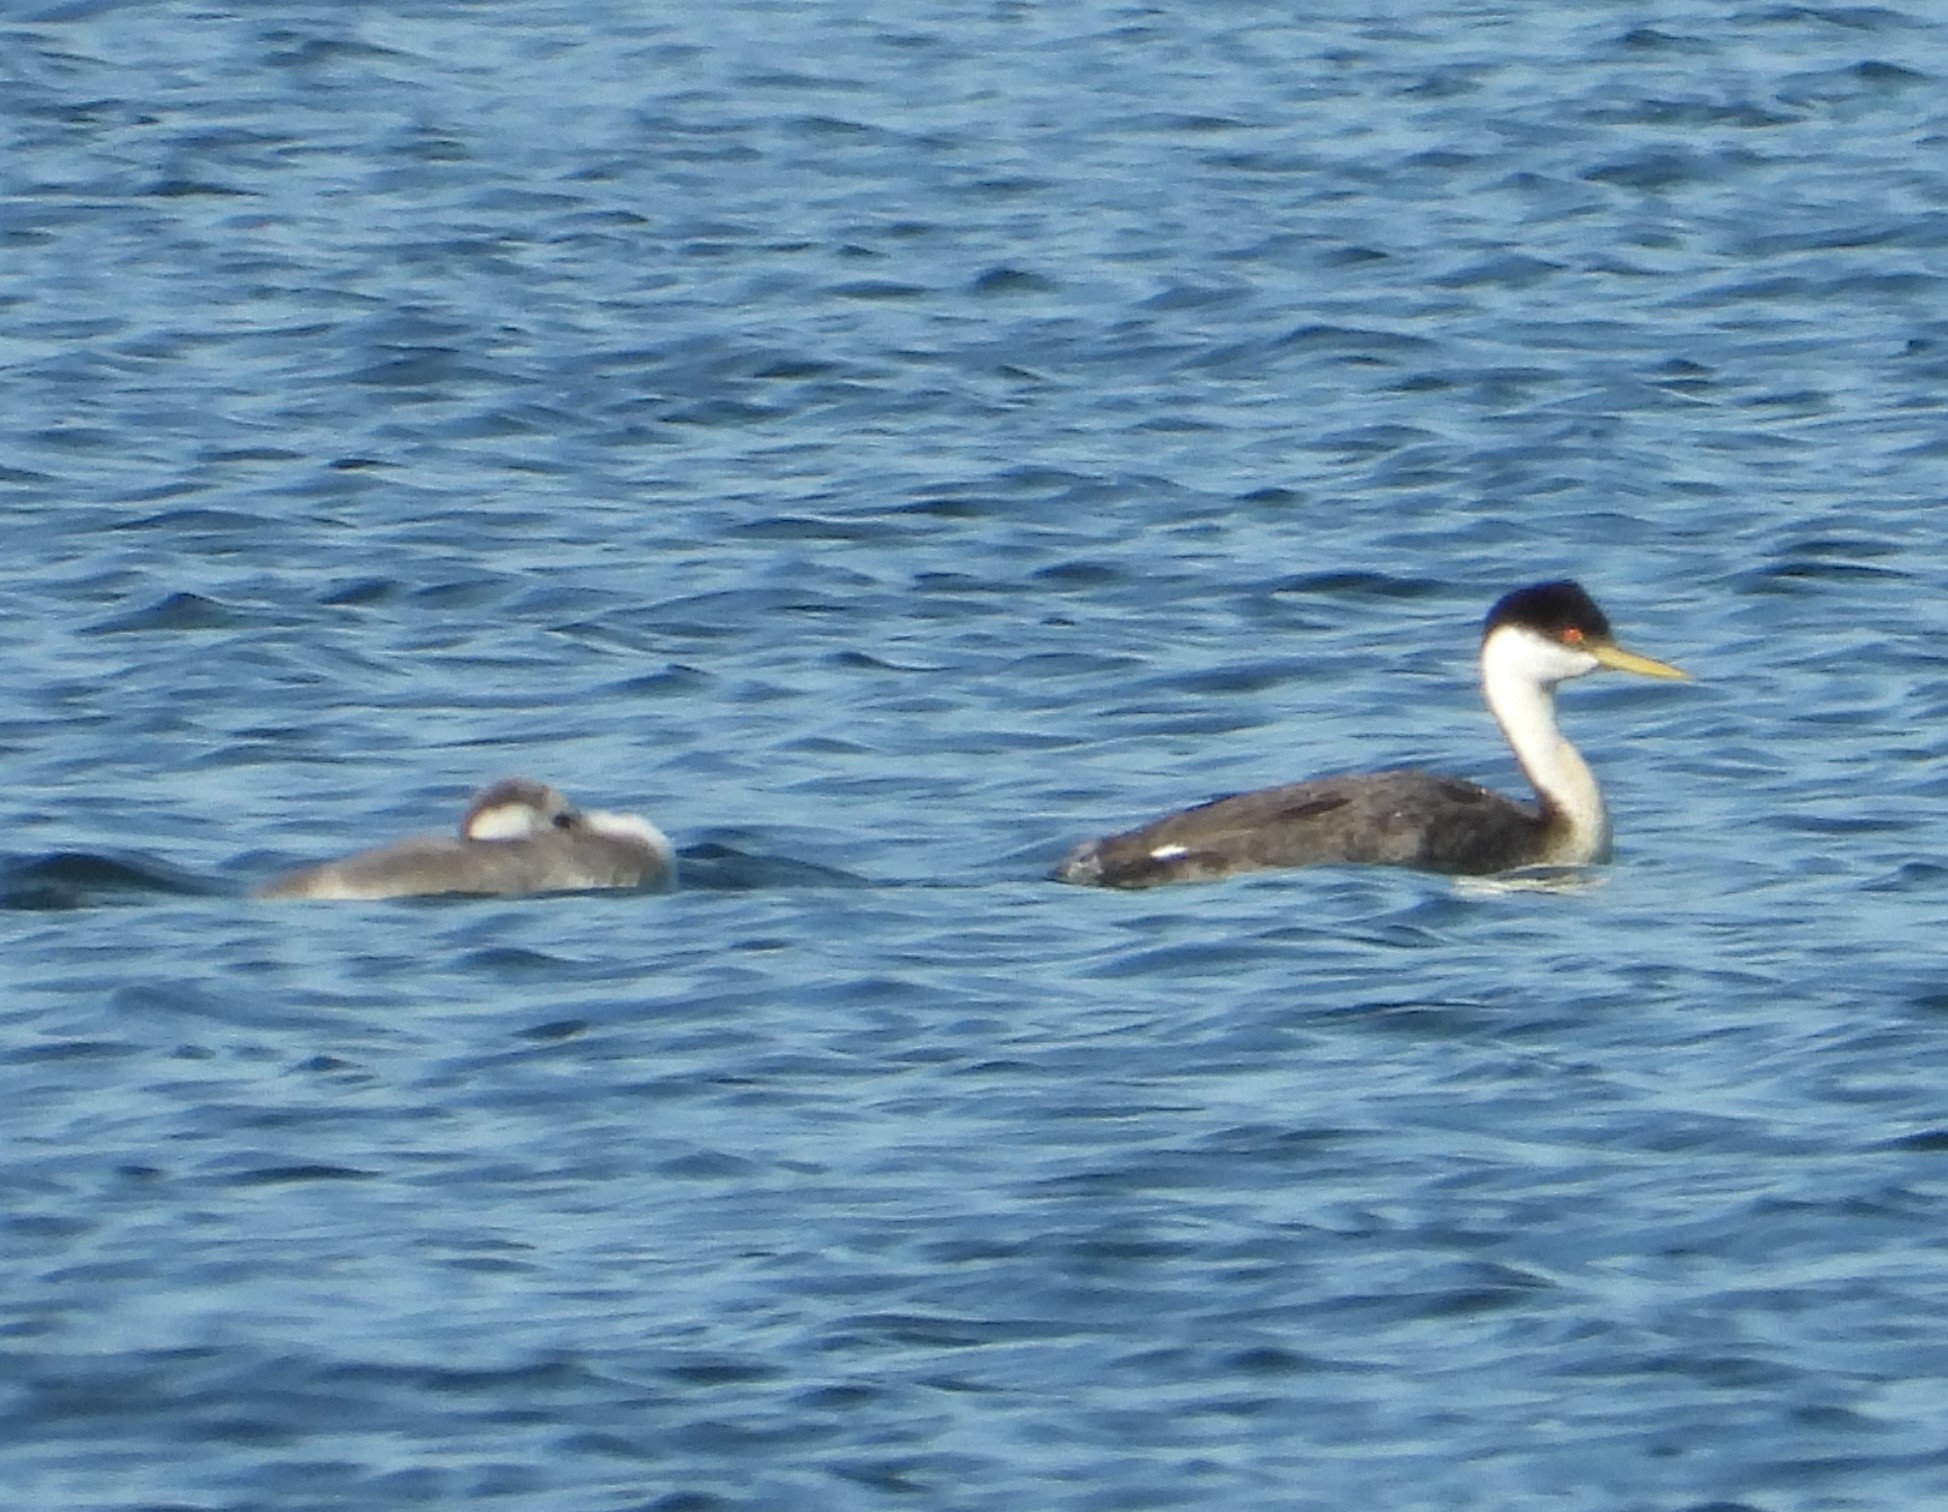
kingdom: Animalia
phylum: Chordata
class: Aves
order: Podicipediformes
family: Podicipedidae
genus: Aechmophorus
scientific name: Aechmophorus occidentalis
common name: Western grebe
